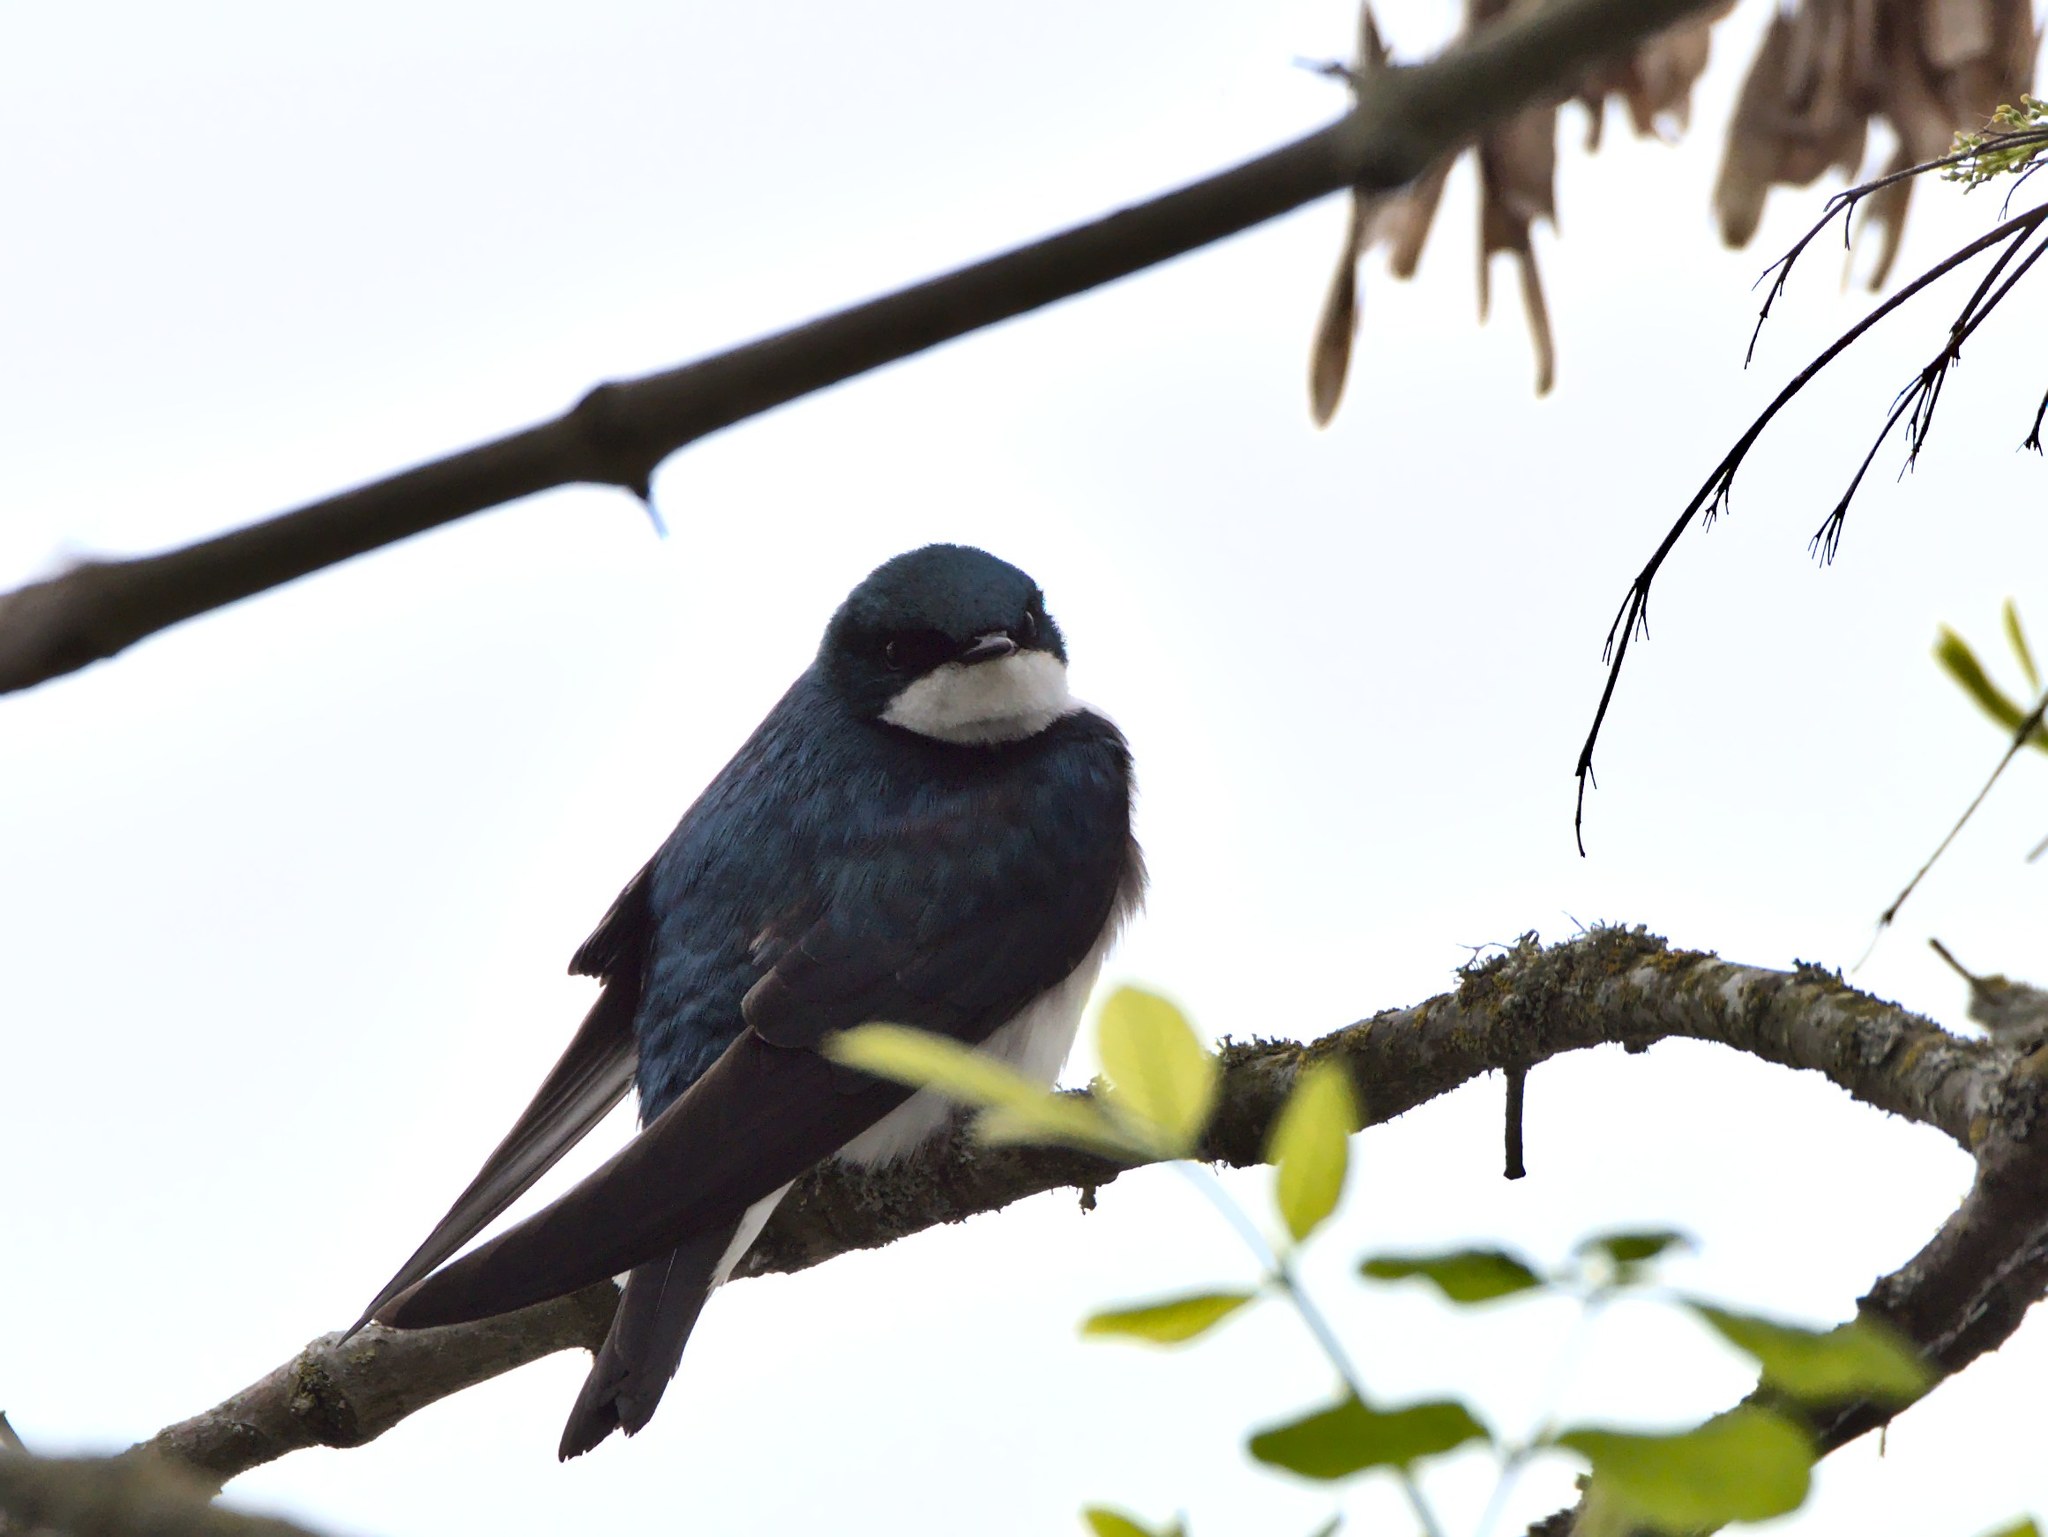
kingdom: Animalia
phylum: Chordata
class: Aves
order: Passeriformes
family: Hirundinidae
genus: Tachycineta
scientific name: Tachycineta bicolor
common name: Tree swallow
